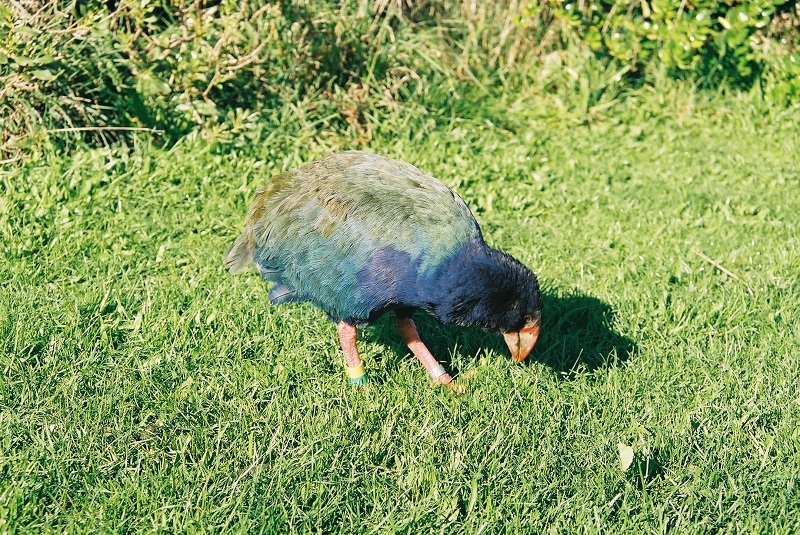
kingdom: Animalia
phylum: Chordata
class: Aves
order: Gruiformes
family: Rallidae
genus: Porphyrio
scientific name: Porphyrio hochstetteri
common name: South island takahe
